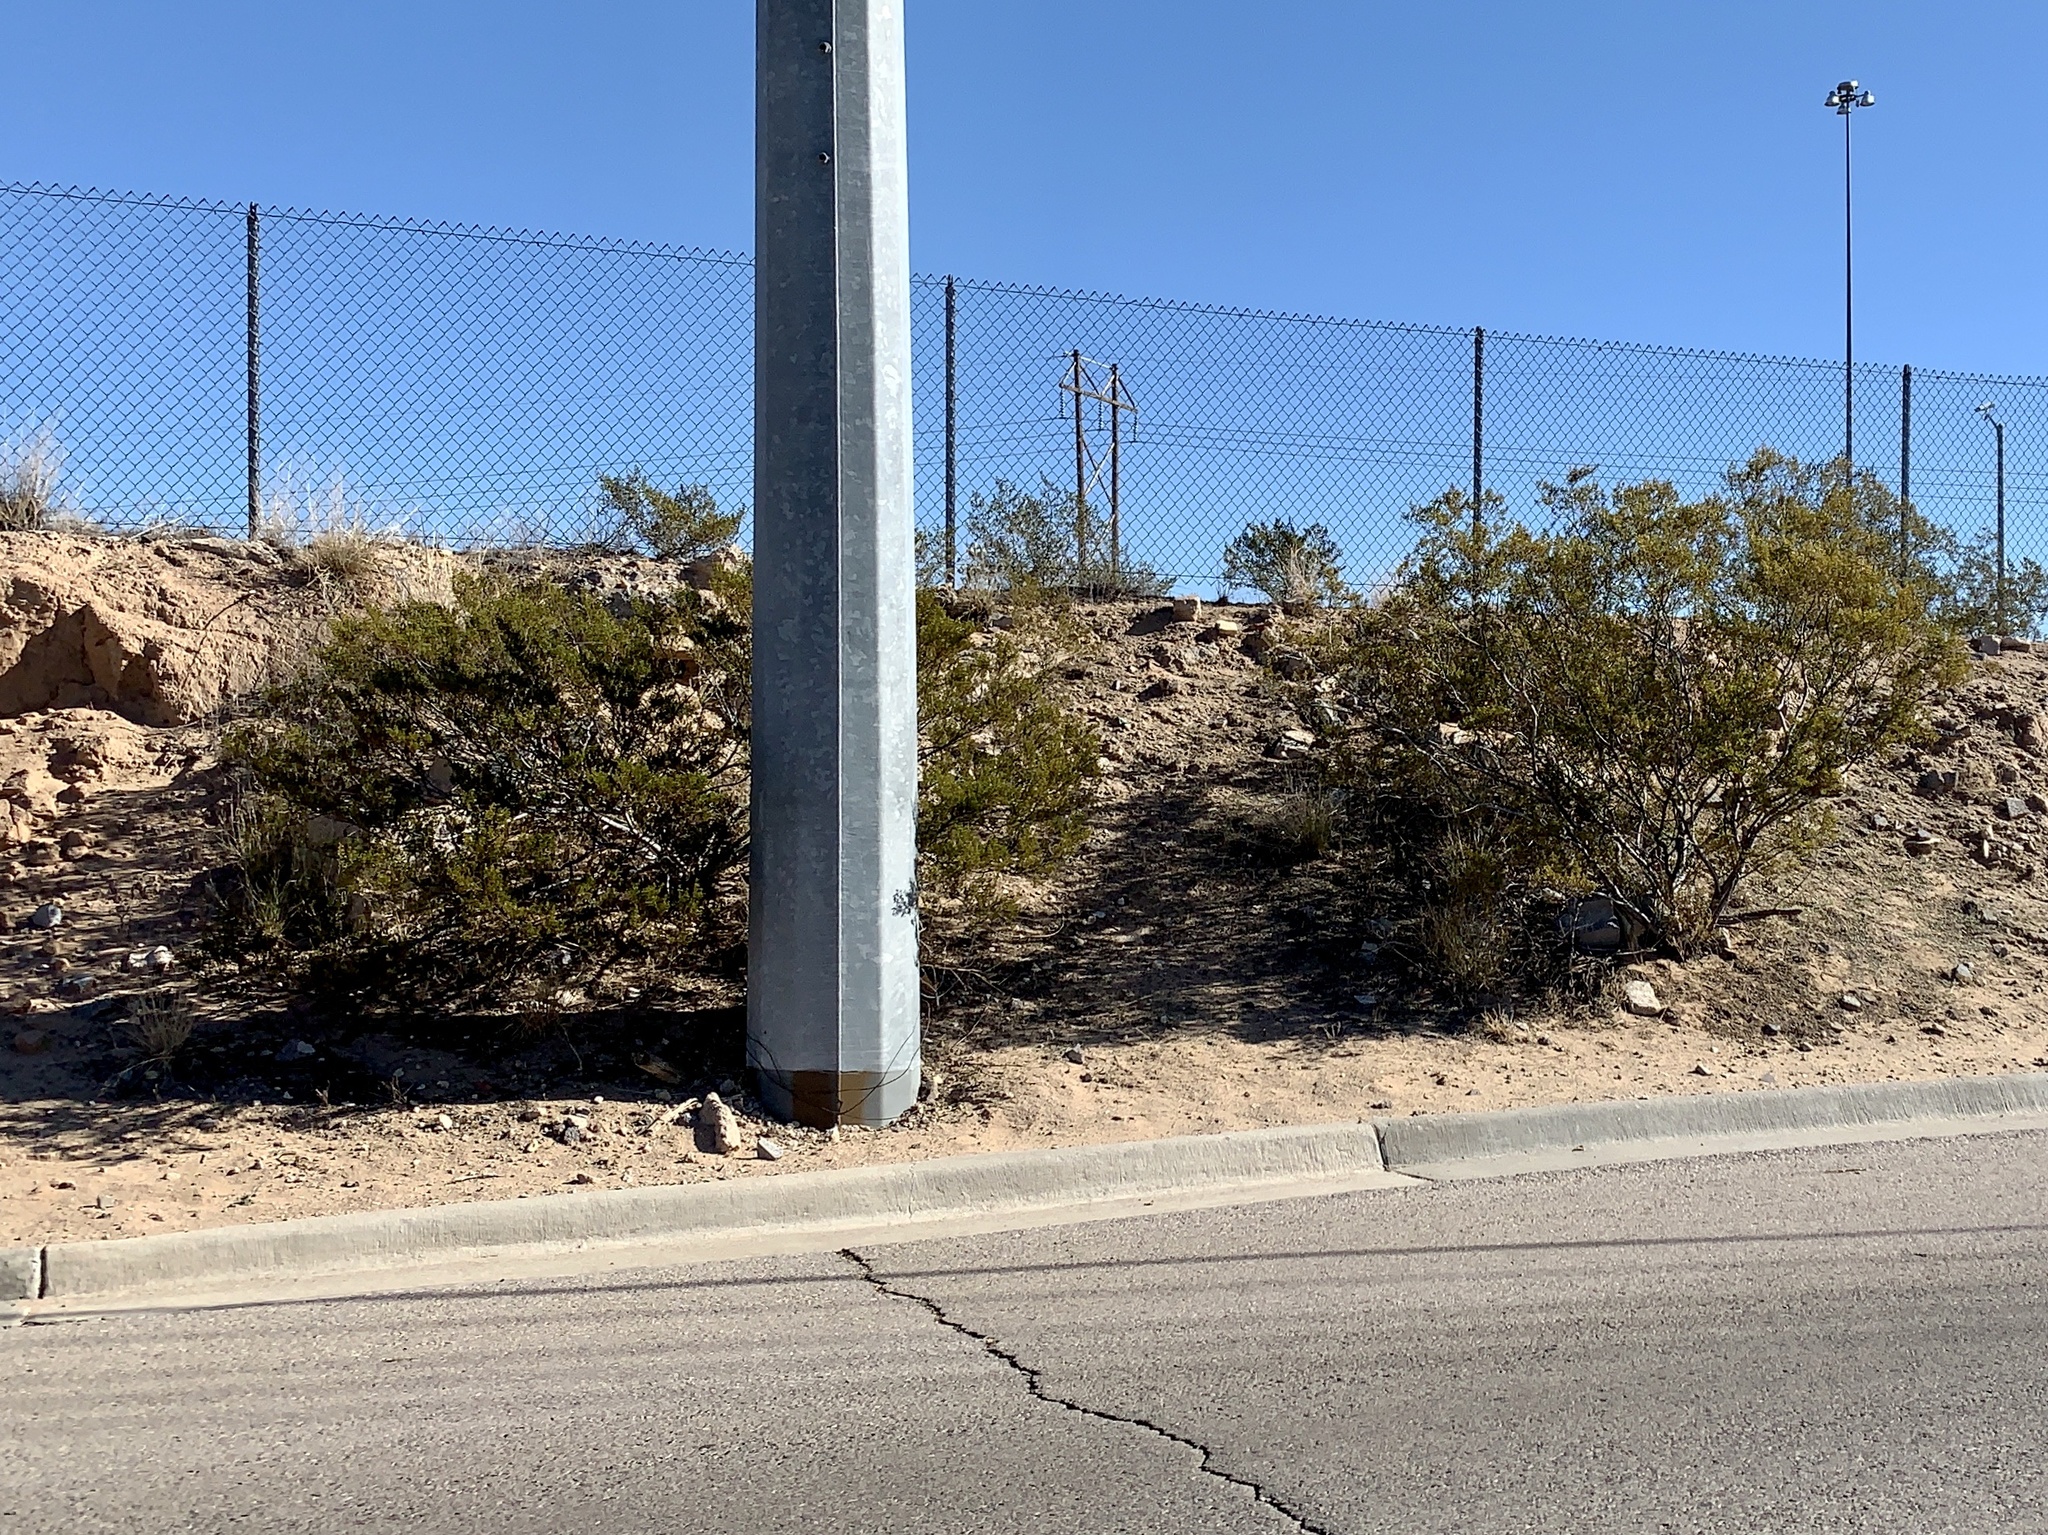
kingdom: Plantae
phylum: Tracheophyta
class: Magnoliopsida
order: Zygophyllales
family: Zygophyllaceae
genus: Larrea
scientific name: Larrea tridentata
